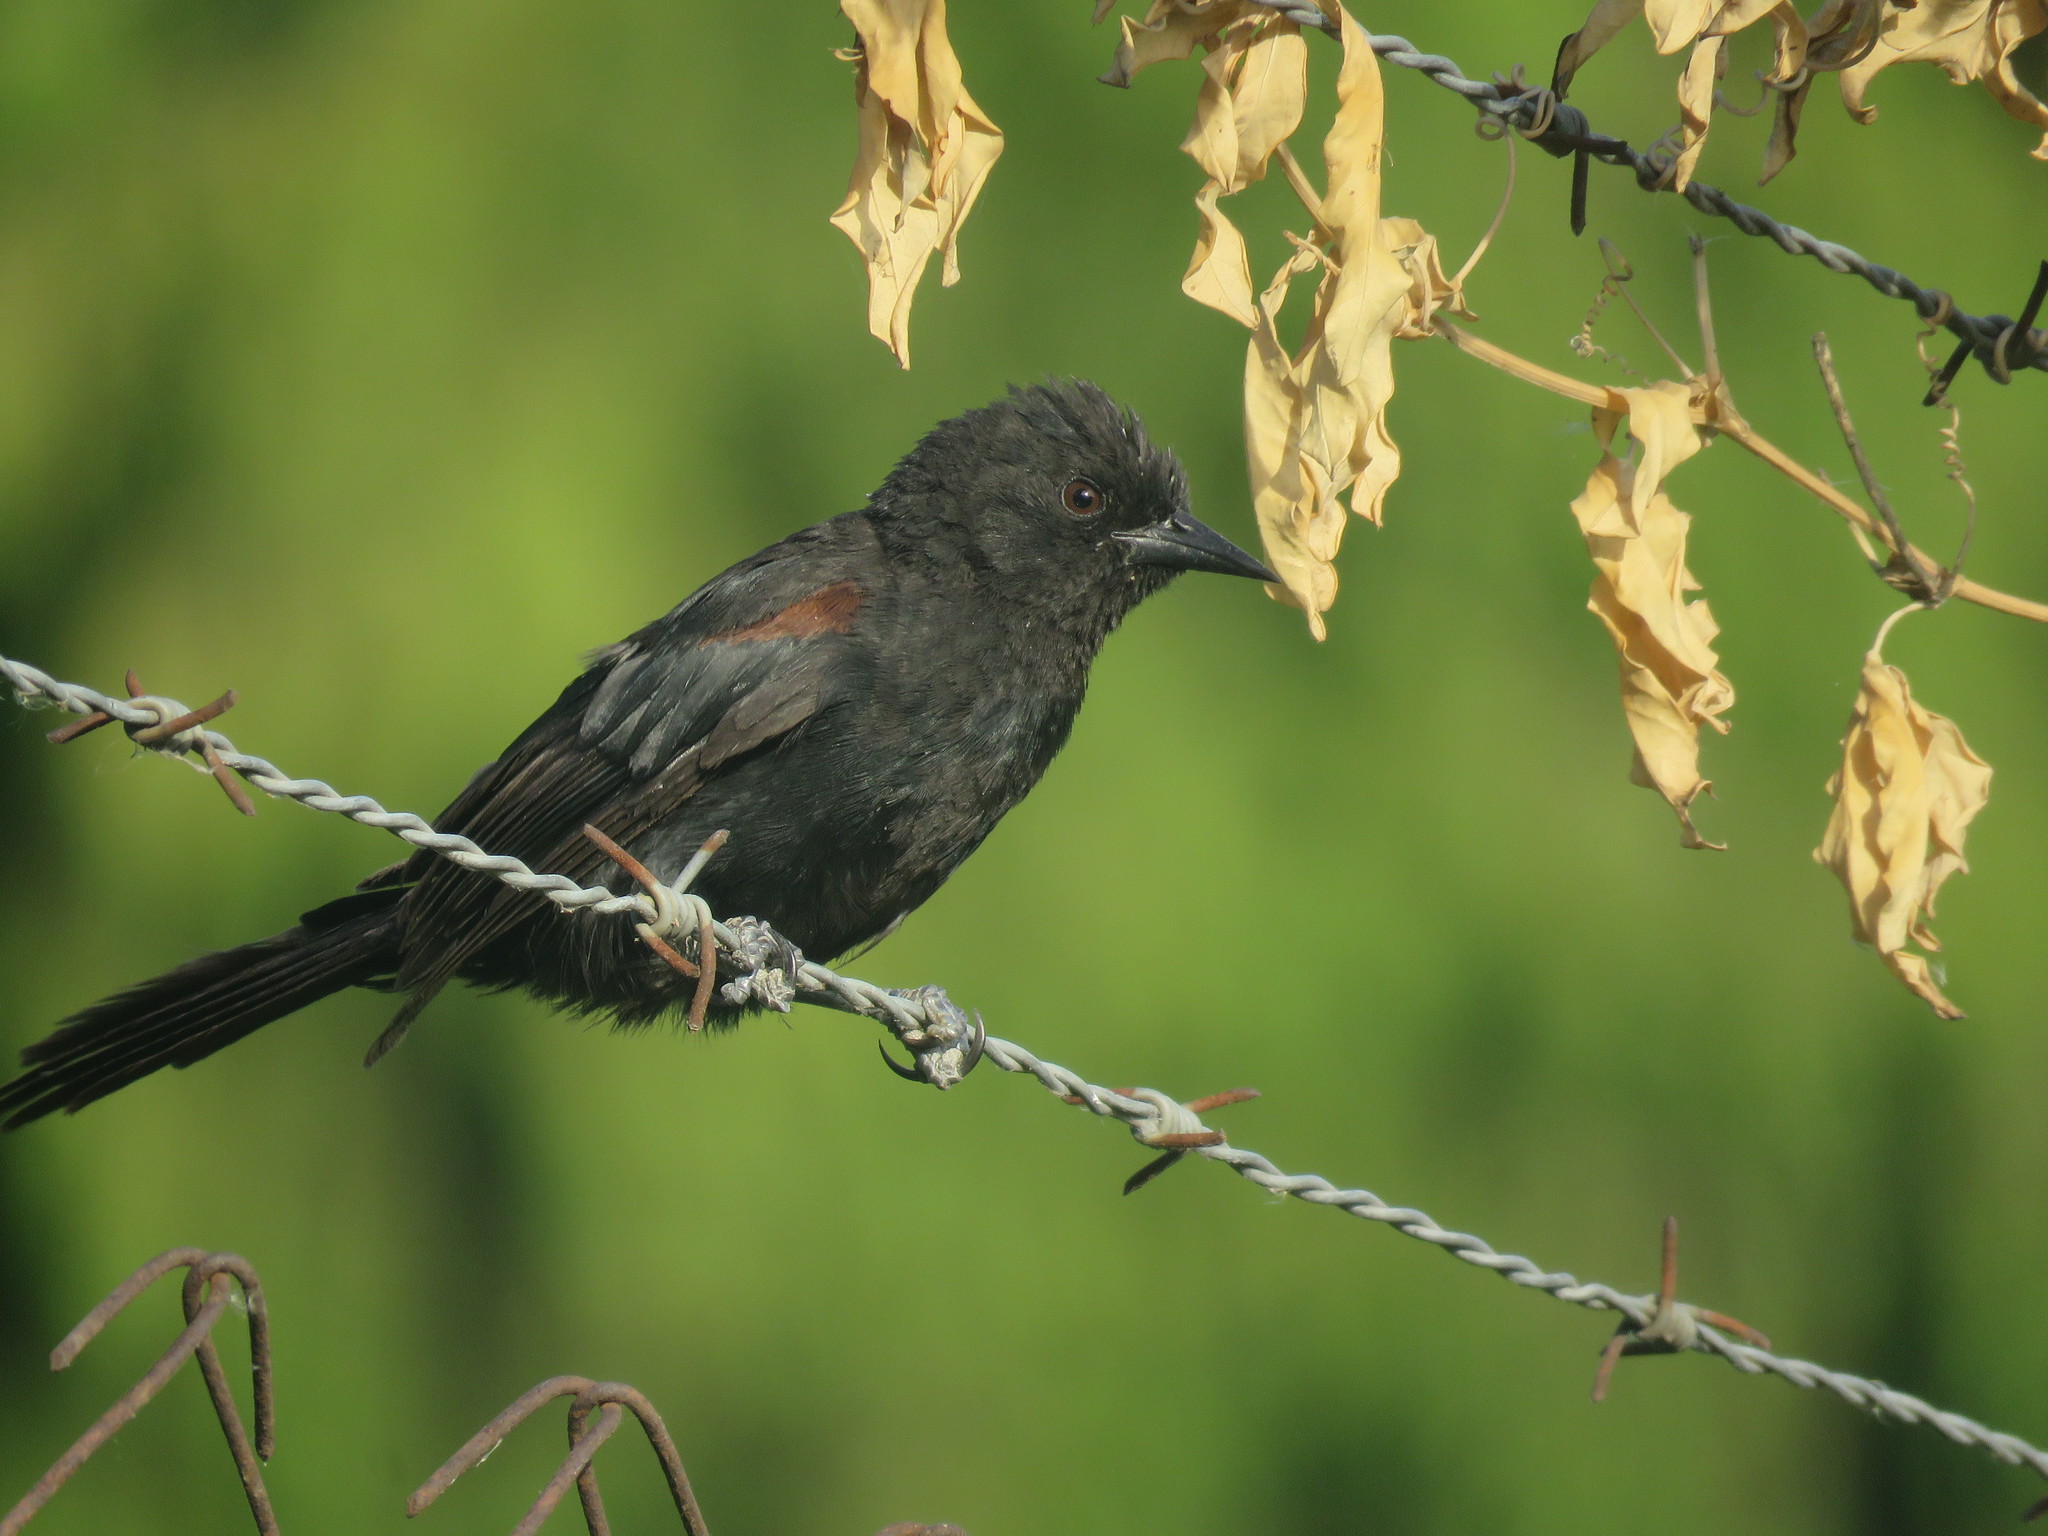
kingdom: Animalia
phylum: Chordata
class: Aves
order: Passeriformes
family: Icteridae
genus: Icterus
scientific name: Icterus cayanensis
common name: Epaulet oriole
